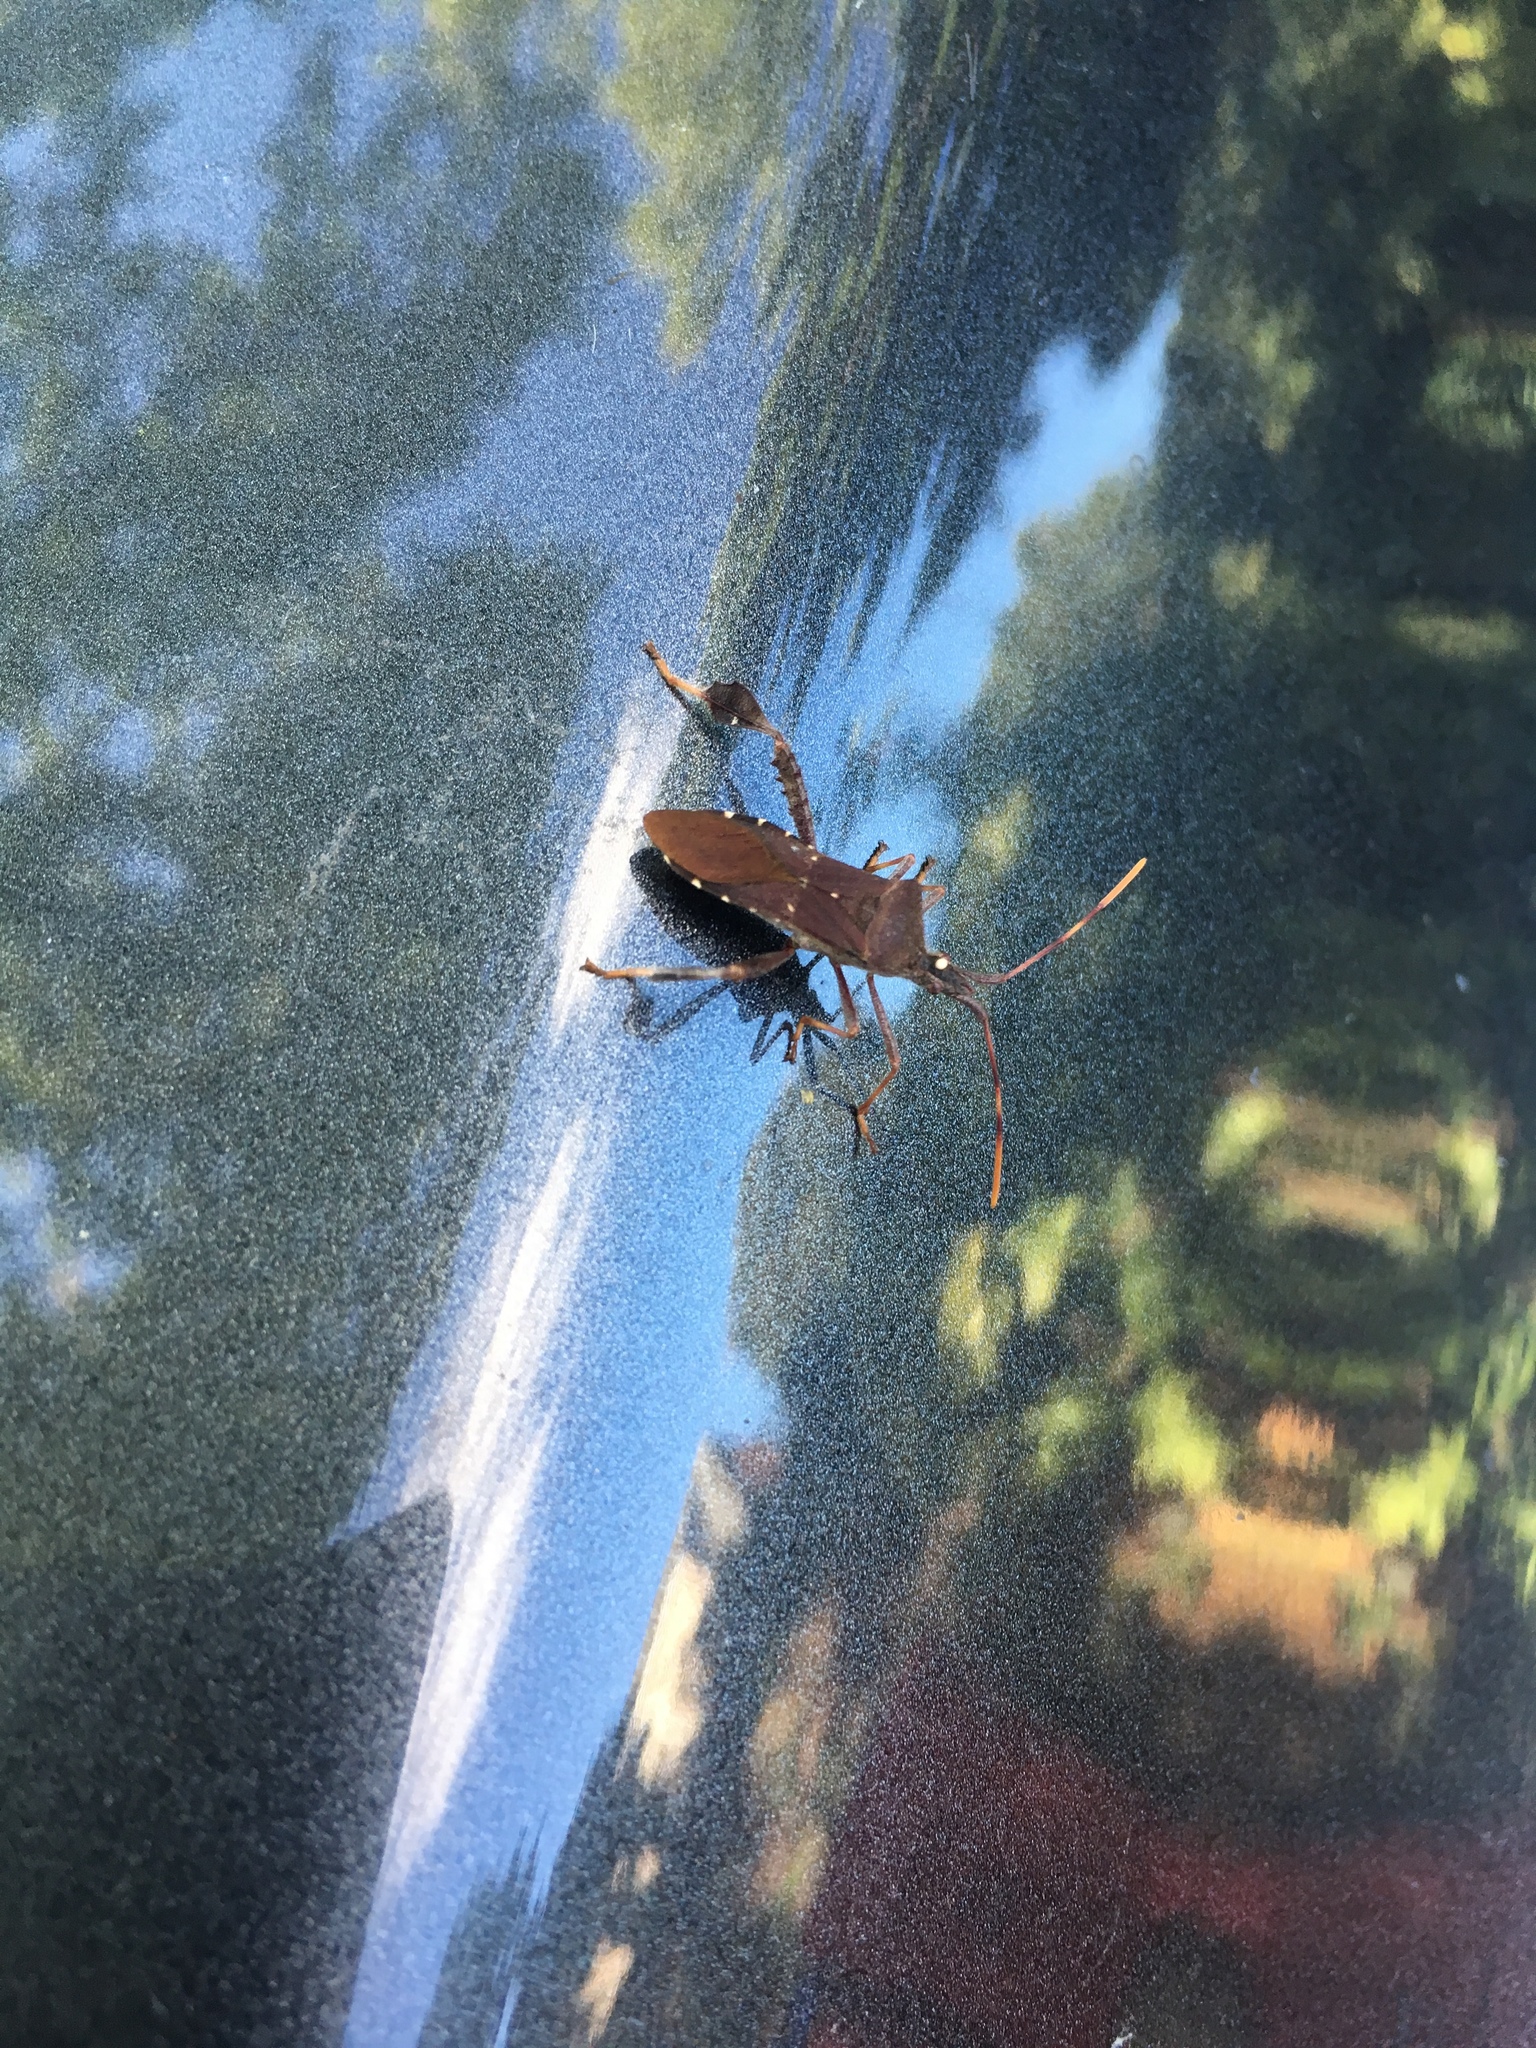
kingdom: Animalia
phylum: Arthropoda
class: Insecta
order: Hemiptera
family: Coreidae
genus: Leptoglossus
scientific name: Leptoglossus oppositus
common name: Northern leaf-footed bug
